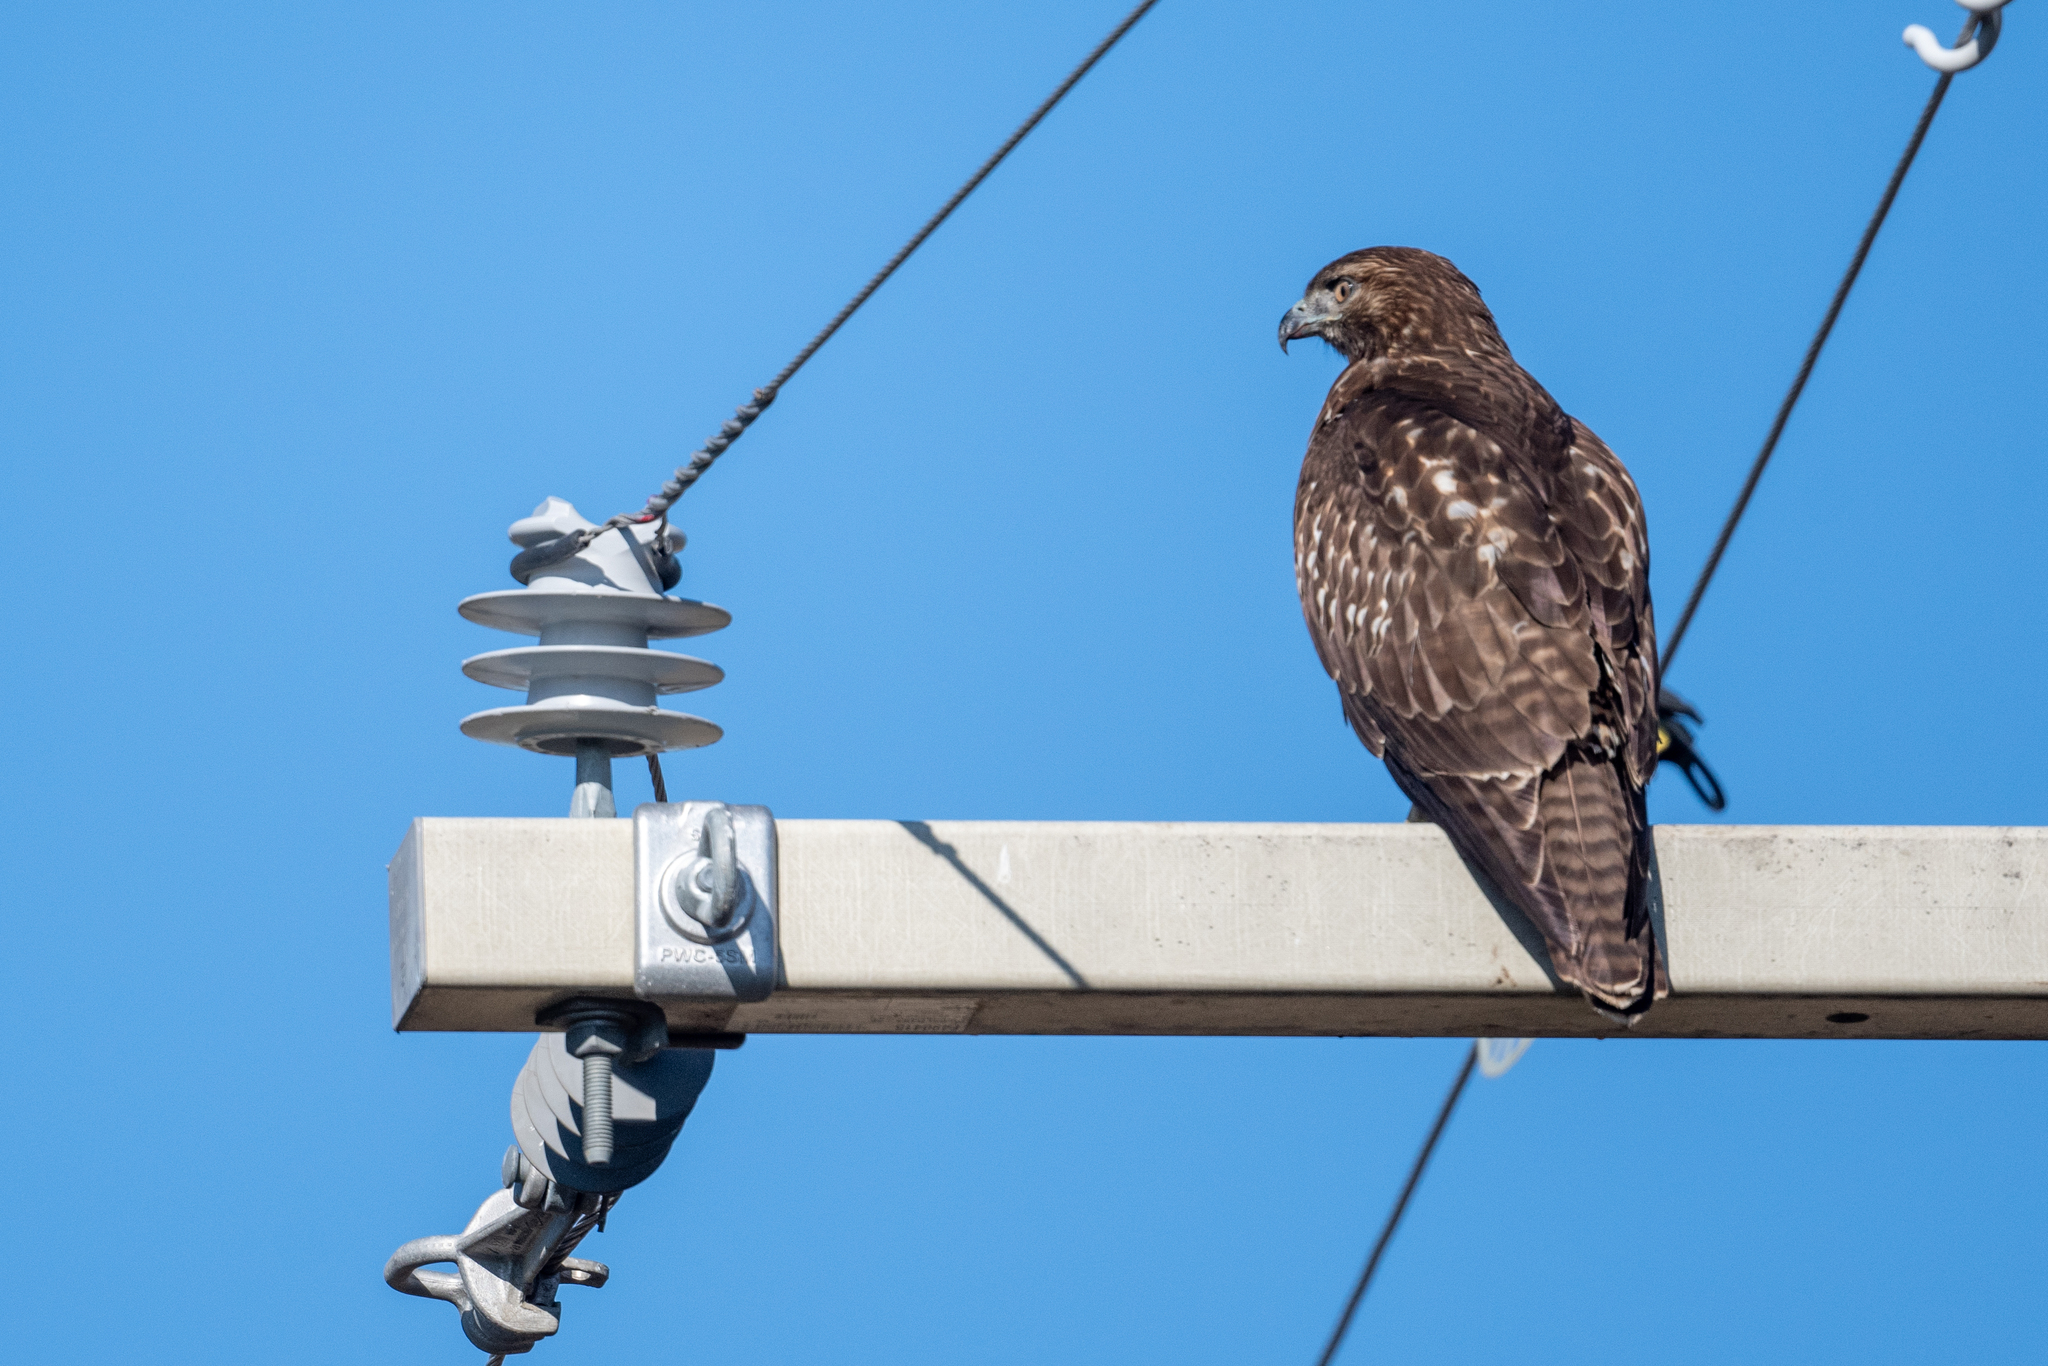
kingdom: Animalia
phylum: Chordata
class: Aves
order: Accipitriformes
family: Accipitridae
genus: Buteo
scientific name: Buteo jamaicensis
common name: Red-tailed hawk
